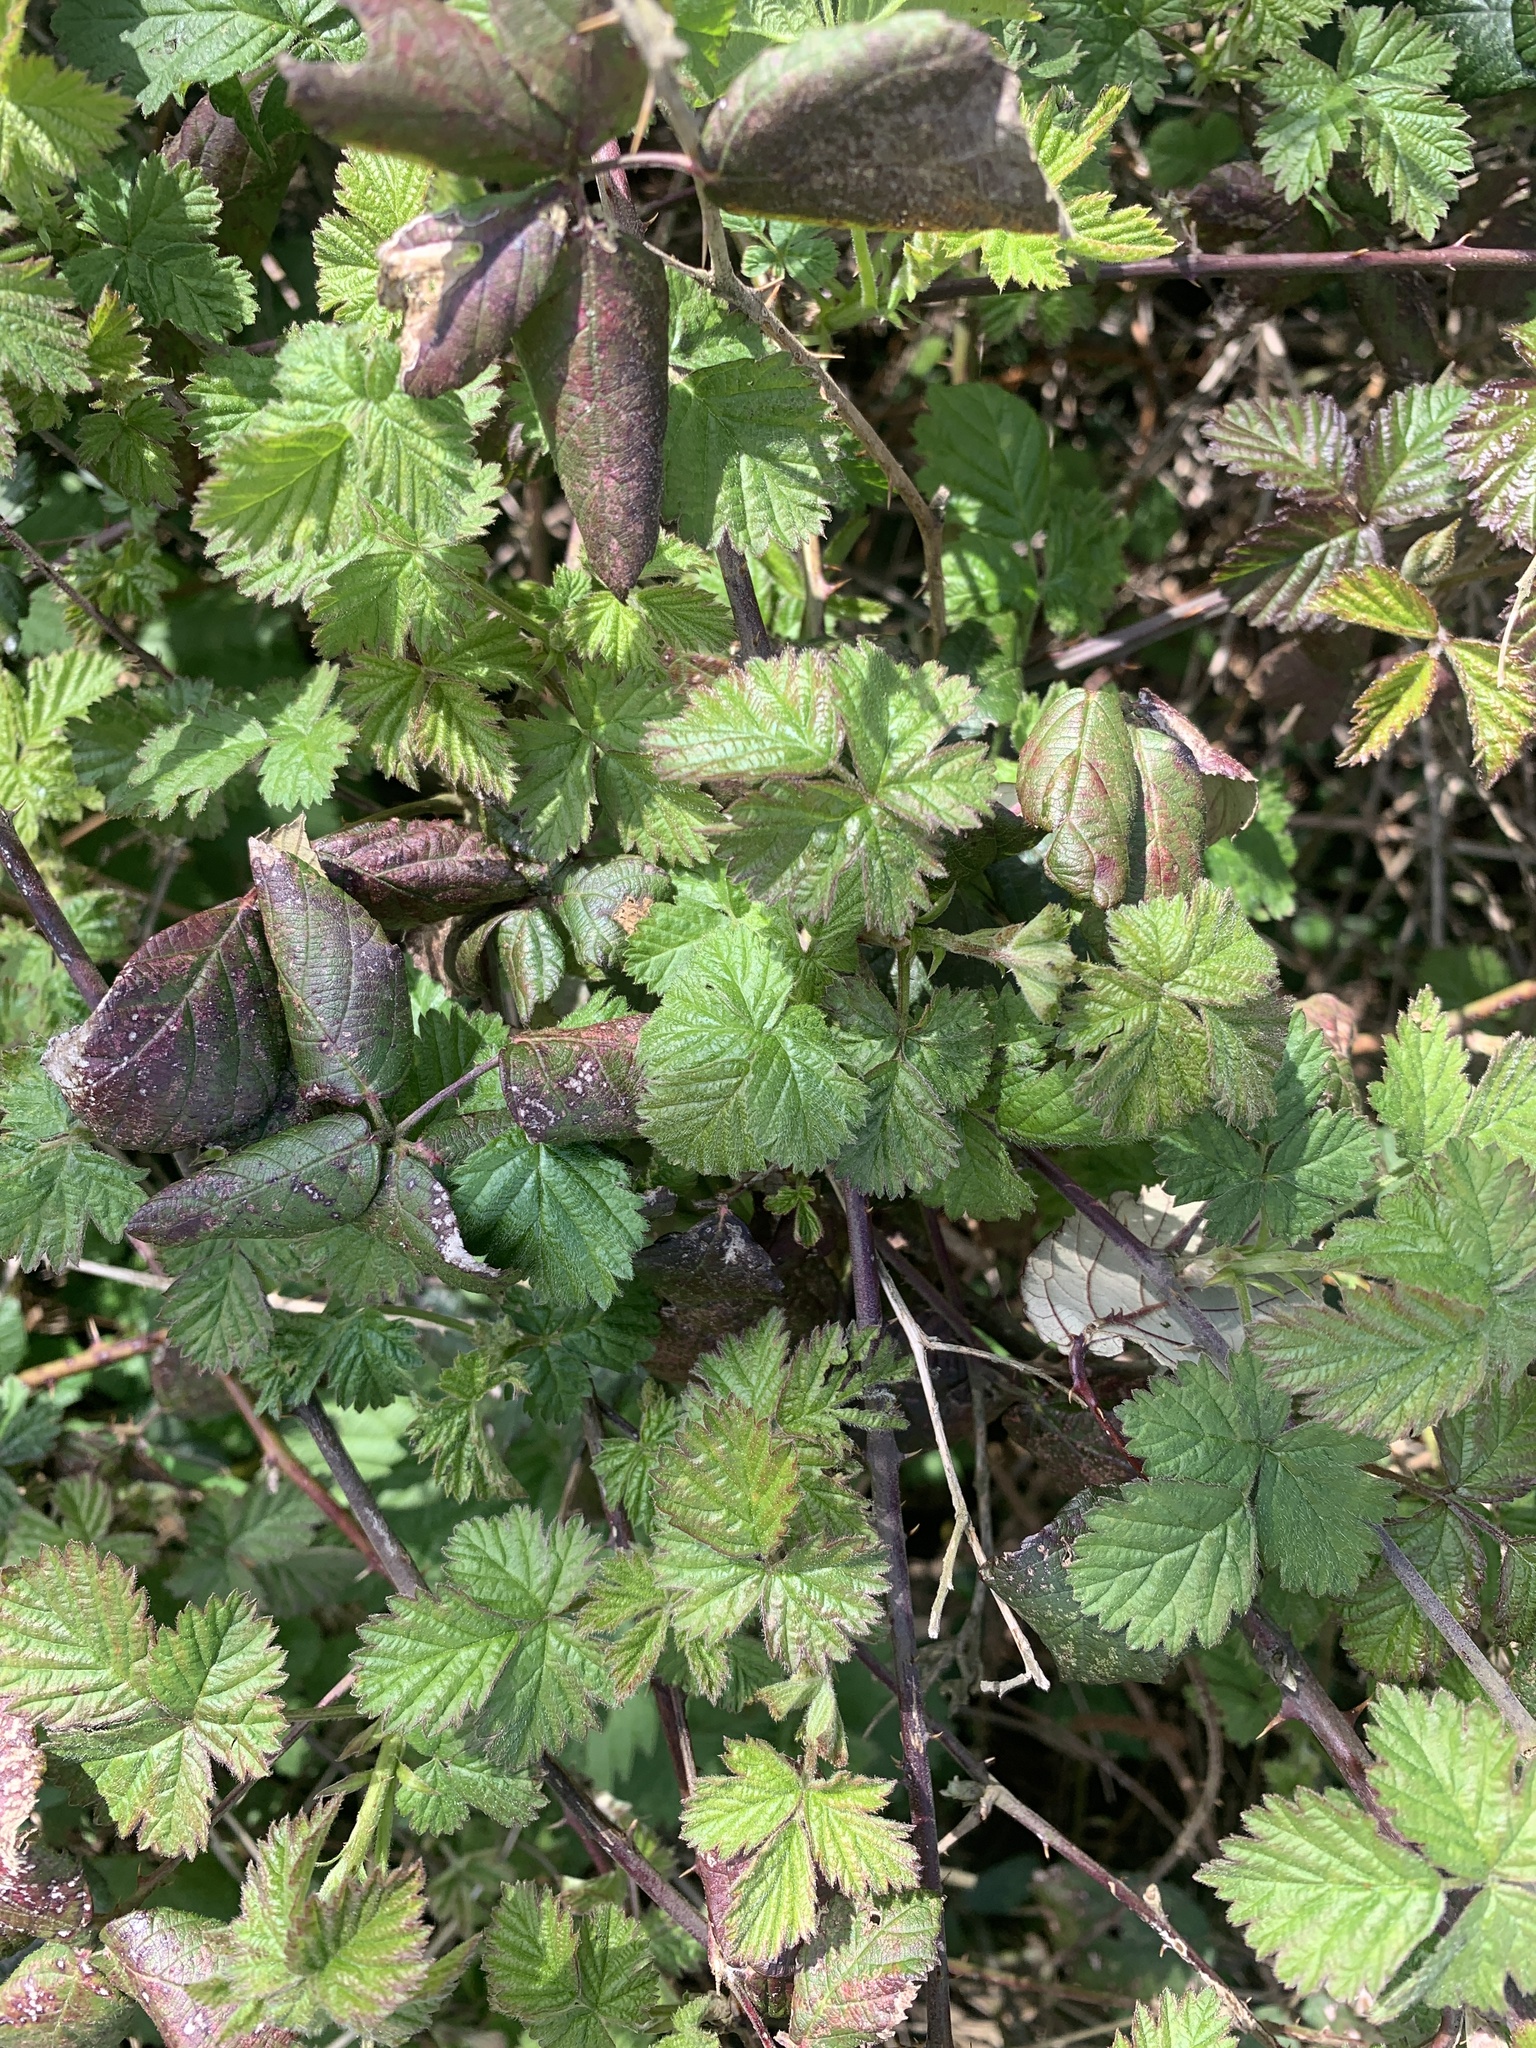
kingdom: Plantae
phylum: Tracheophyta
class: Magnoliopsida
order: Rosales
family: Rosaceae
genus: Rubus
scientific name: Rubus fruticosus
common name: Blackberry, bramble
